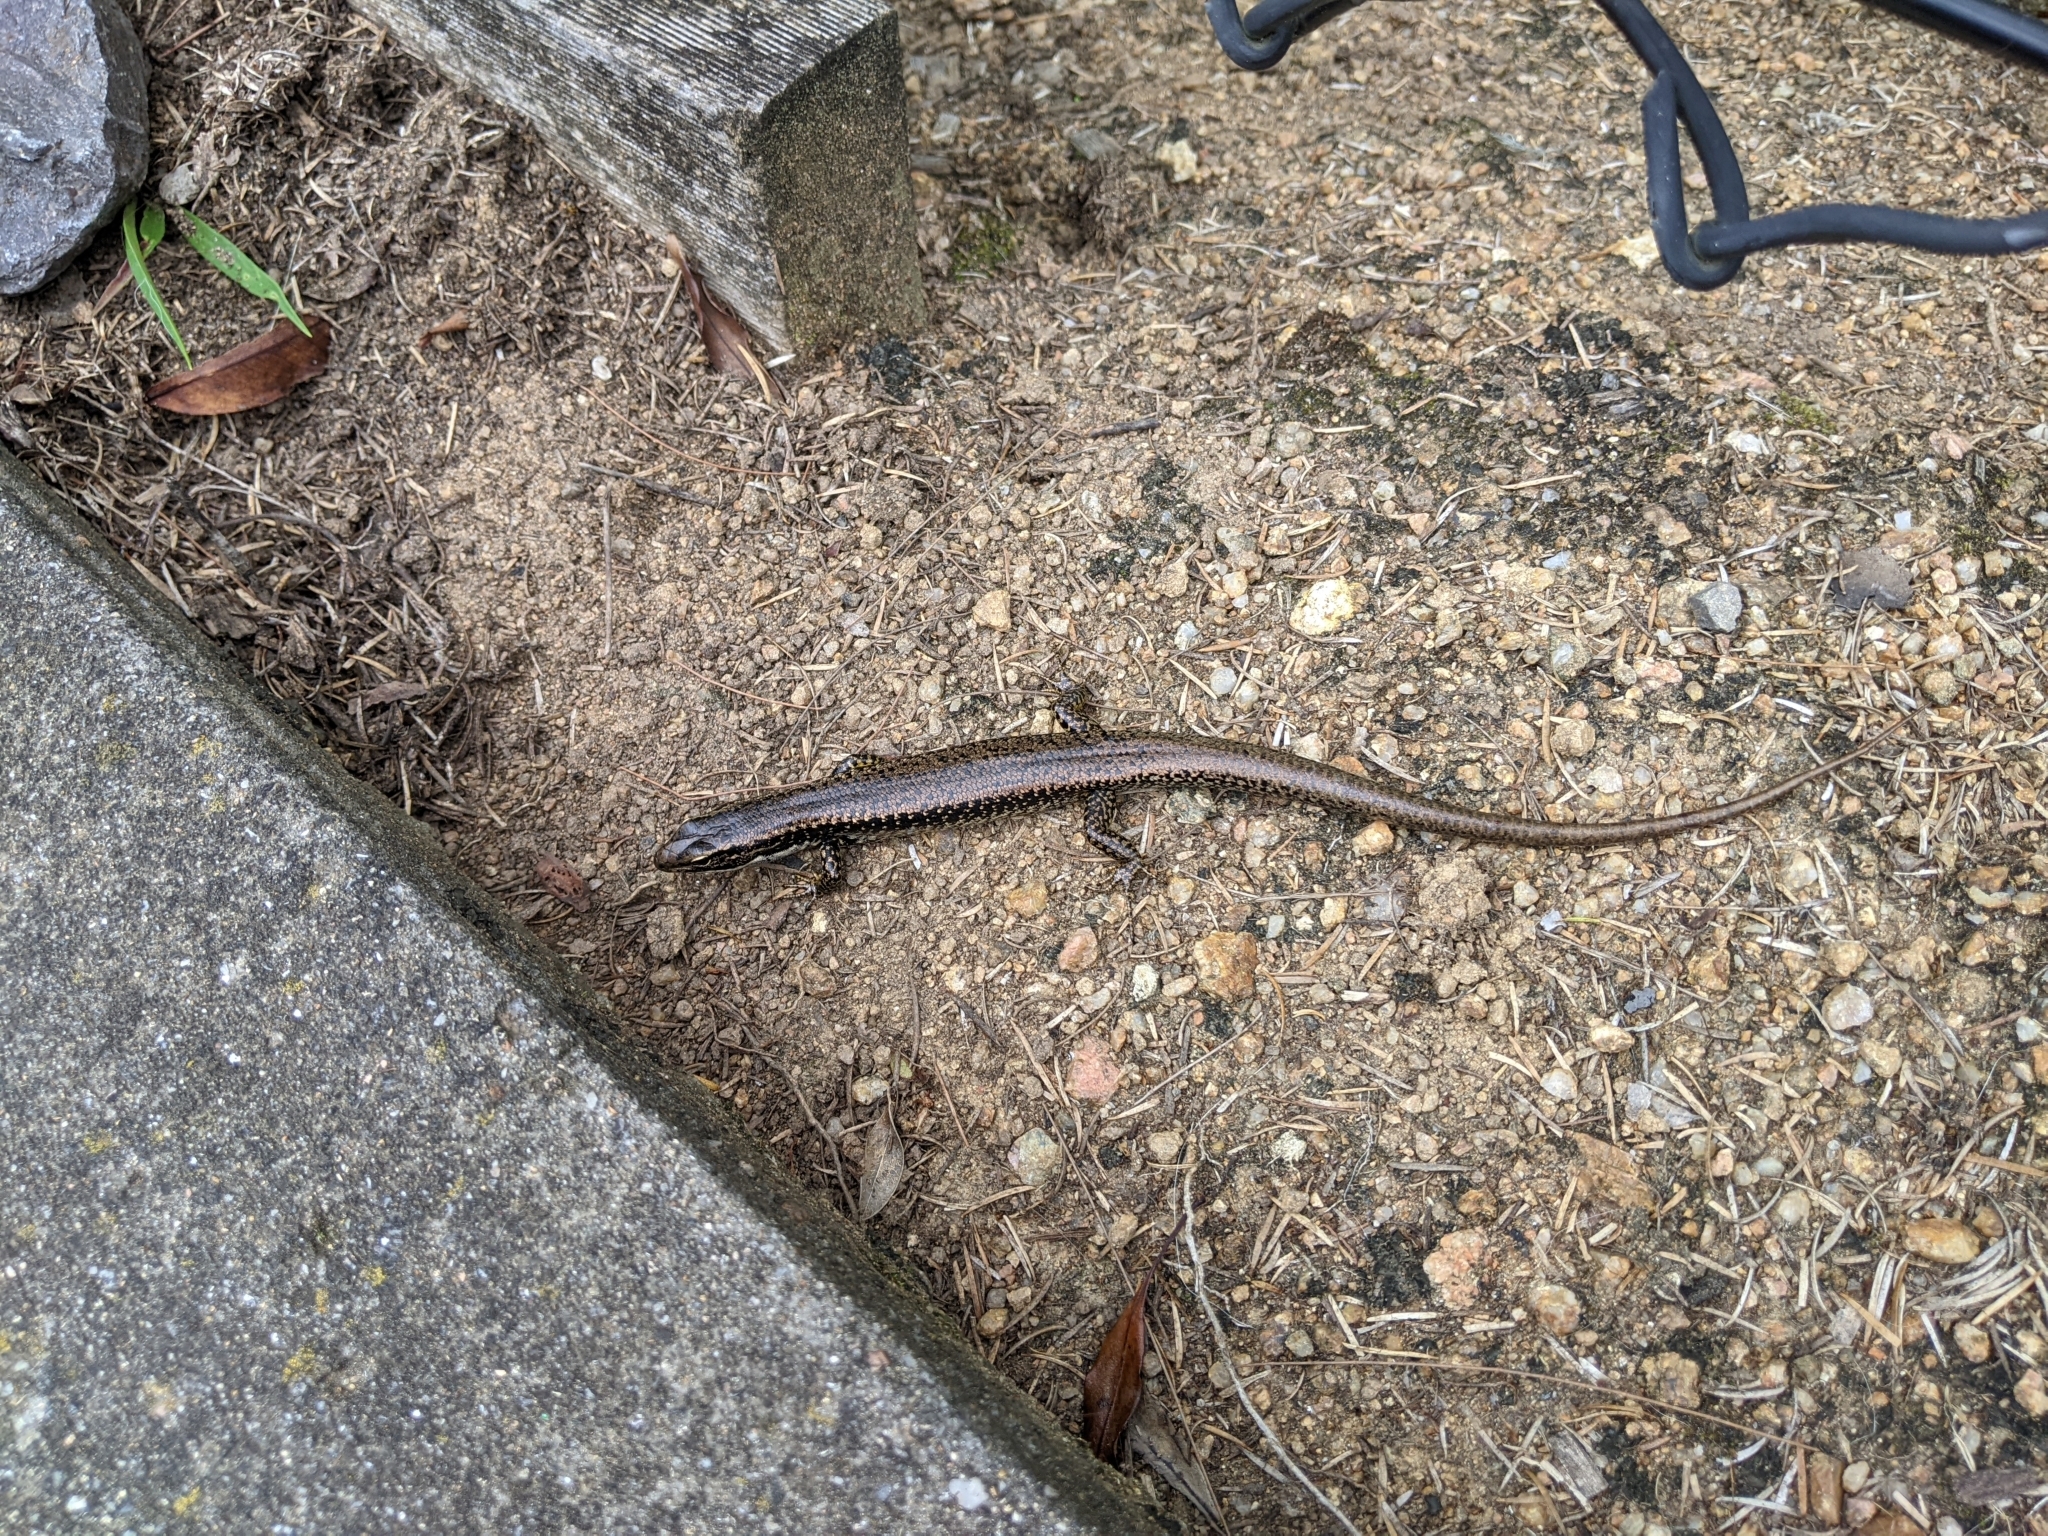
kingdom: Animalia
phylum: Chordata
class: Squamata
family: Scincidae
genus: Eulamprus
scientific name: Eulamprus heatwolei
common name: Warm-temperate water-skink
